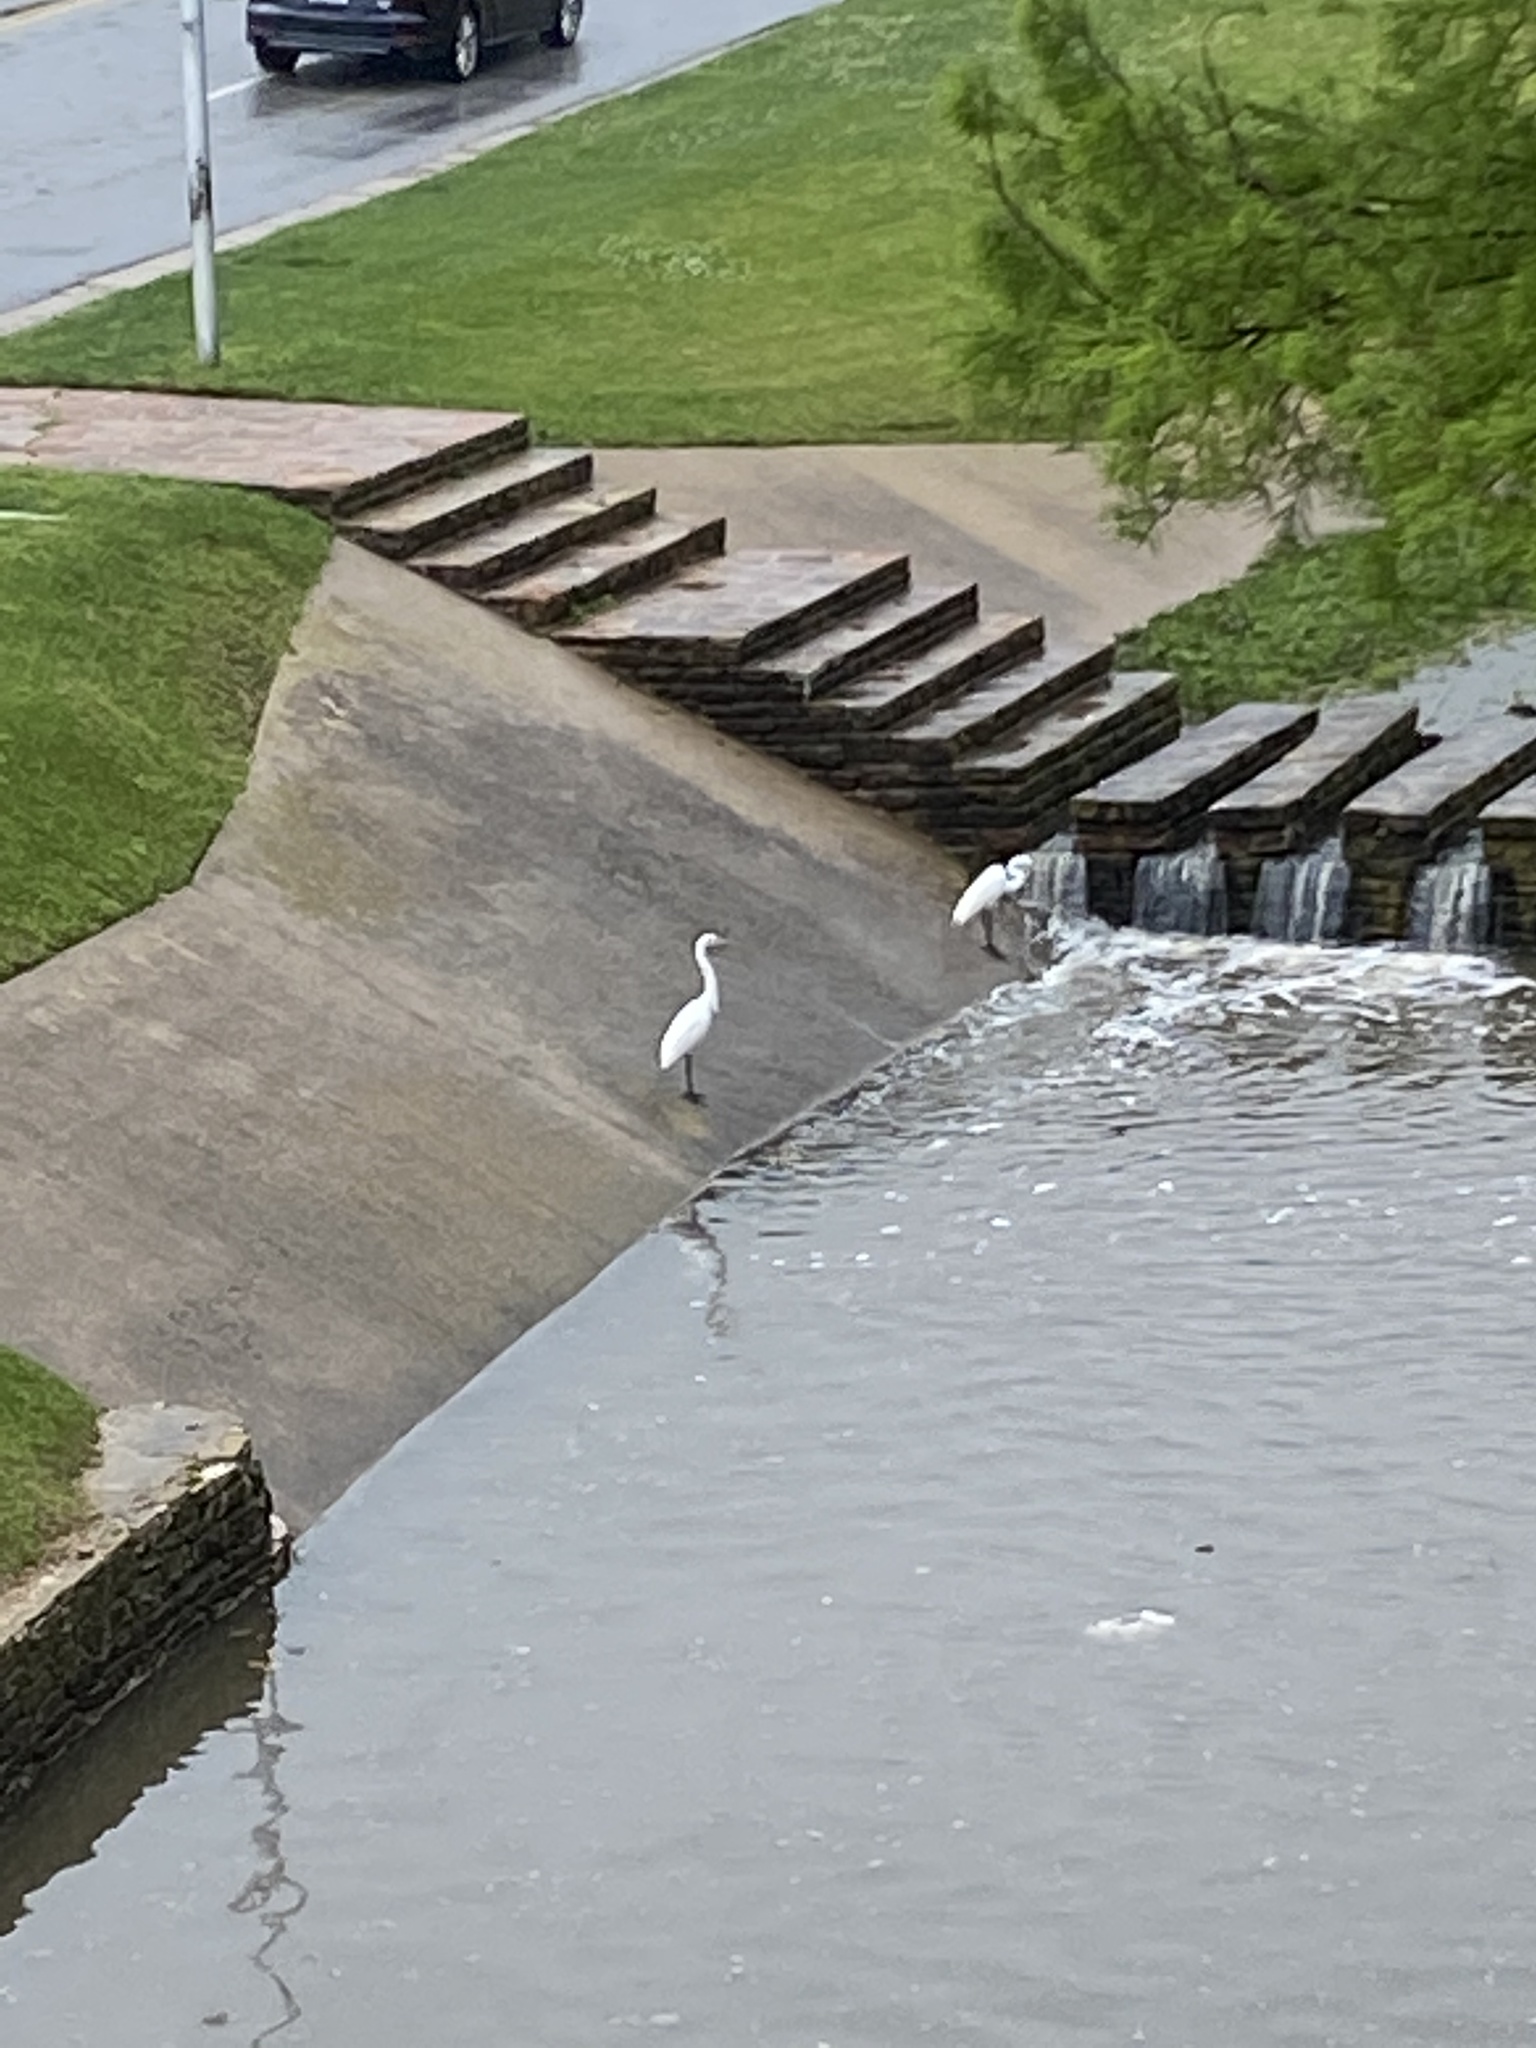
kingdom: Animalia
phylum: Chordata
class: Aves
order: Pelecaniformes
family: Ardeidae
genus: Ardea
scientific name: Ardea alba
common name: Great egret
